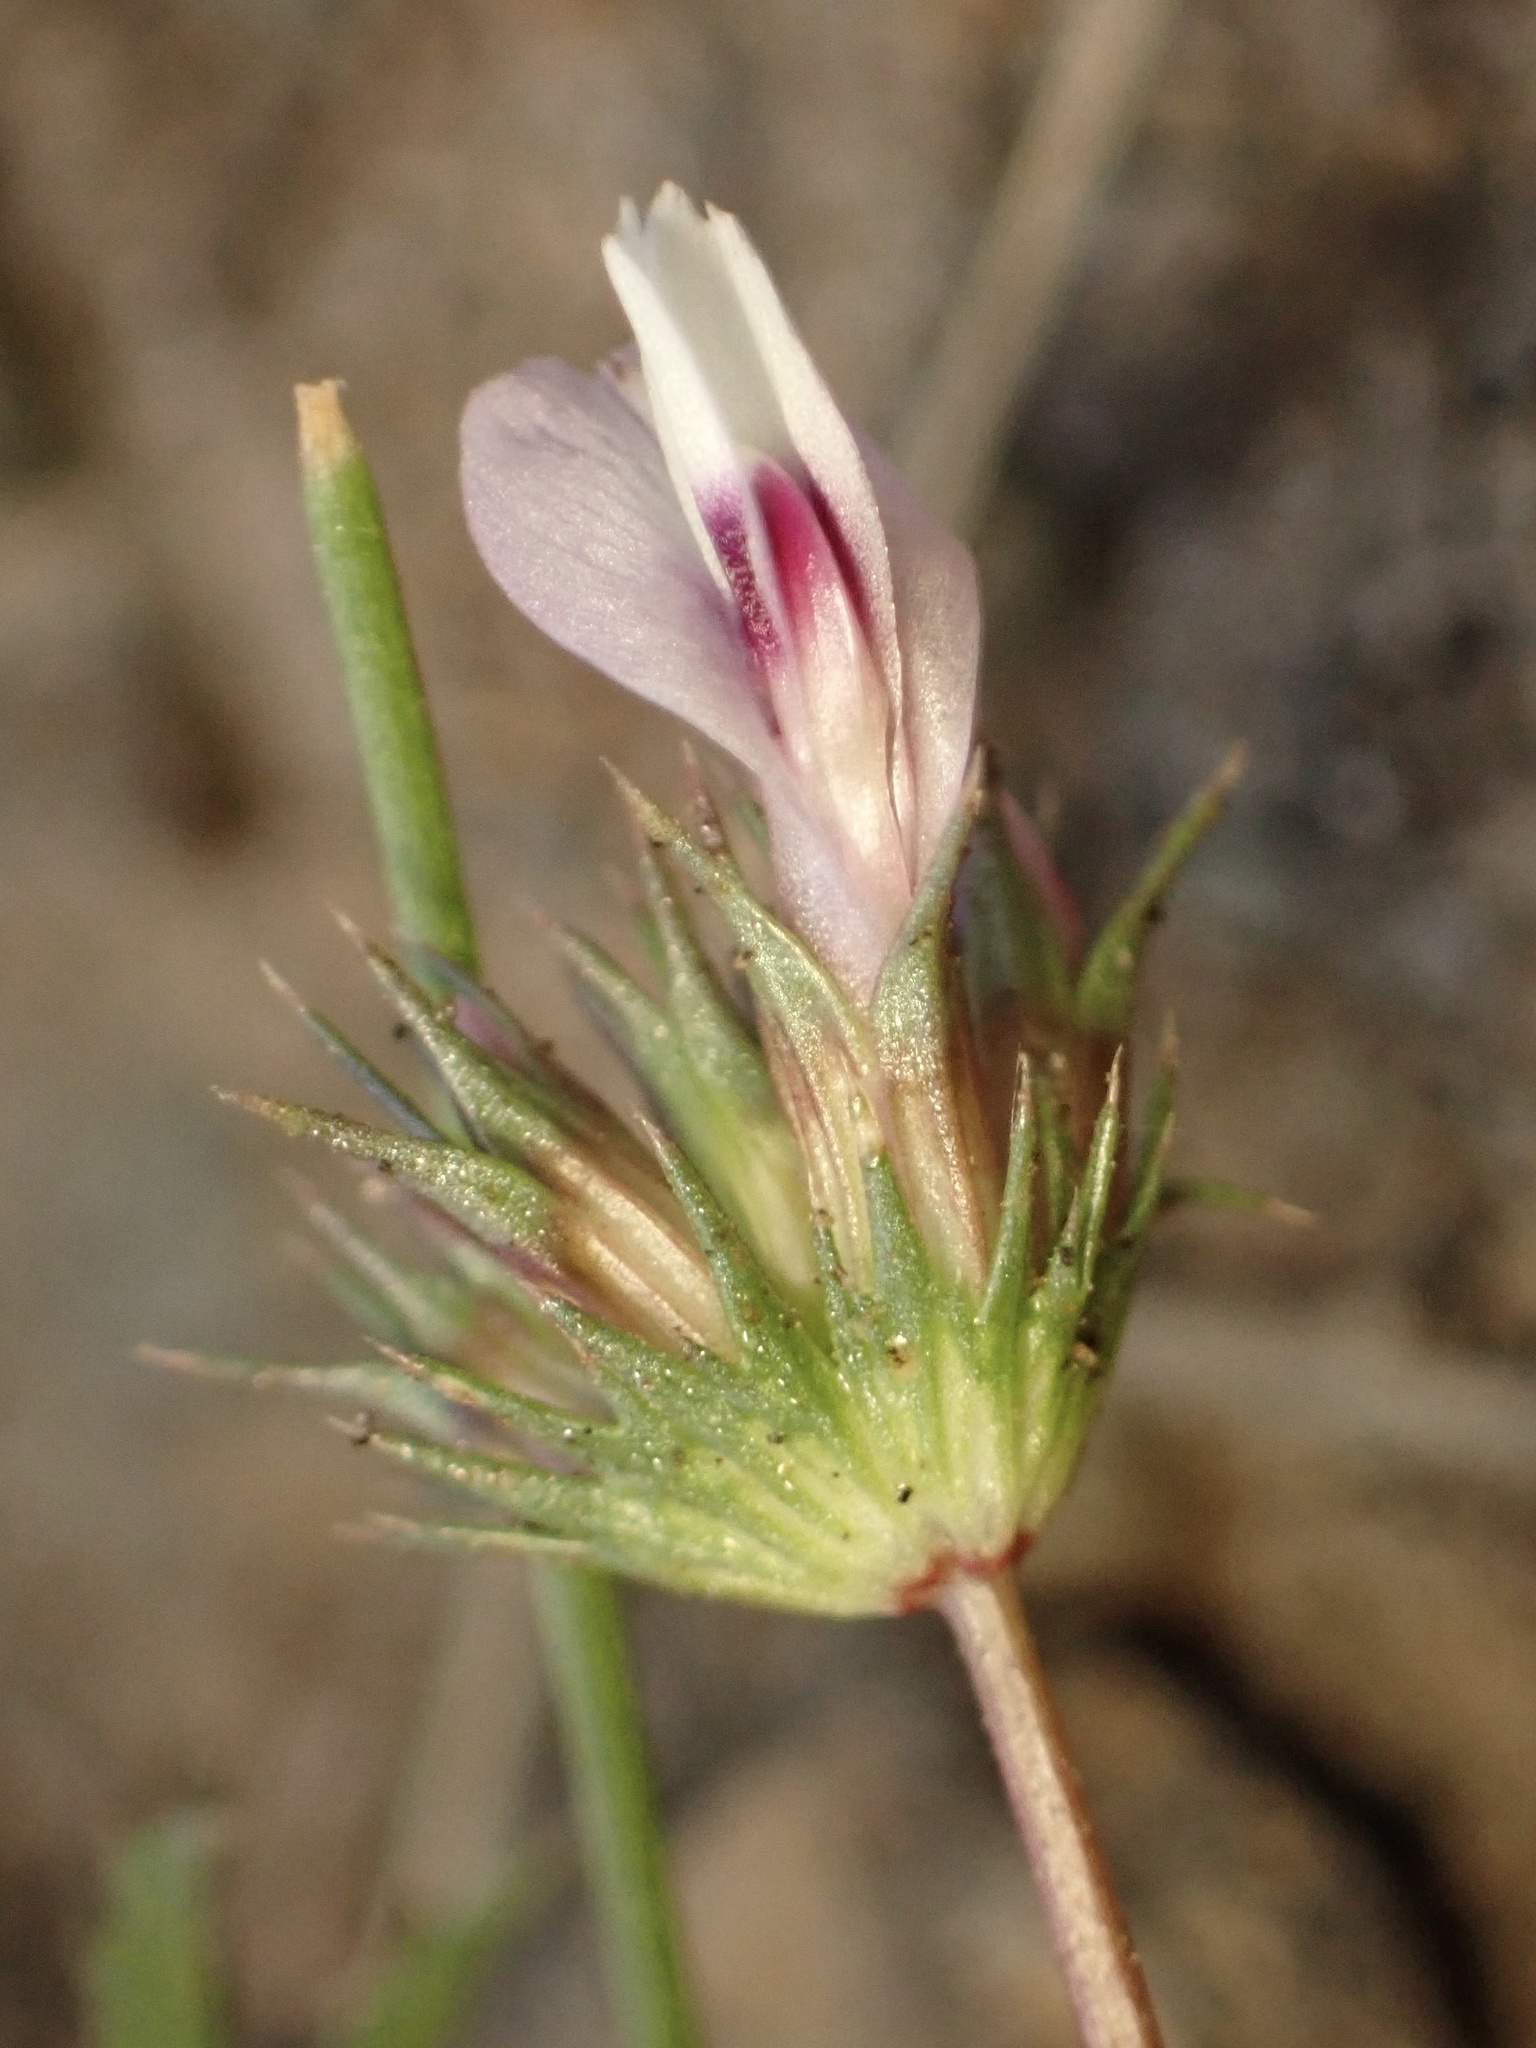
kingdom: Plantae
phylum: Tracheophyta
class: Magnoliopsida
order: Fabales
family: Fabaceae
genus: Trifolium
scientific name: Trifolium willdenovii
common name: Tomcat clover
